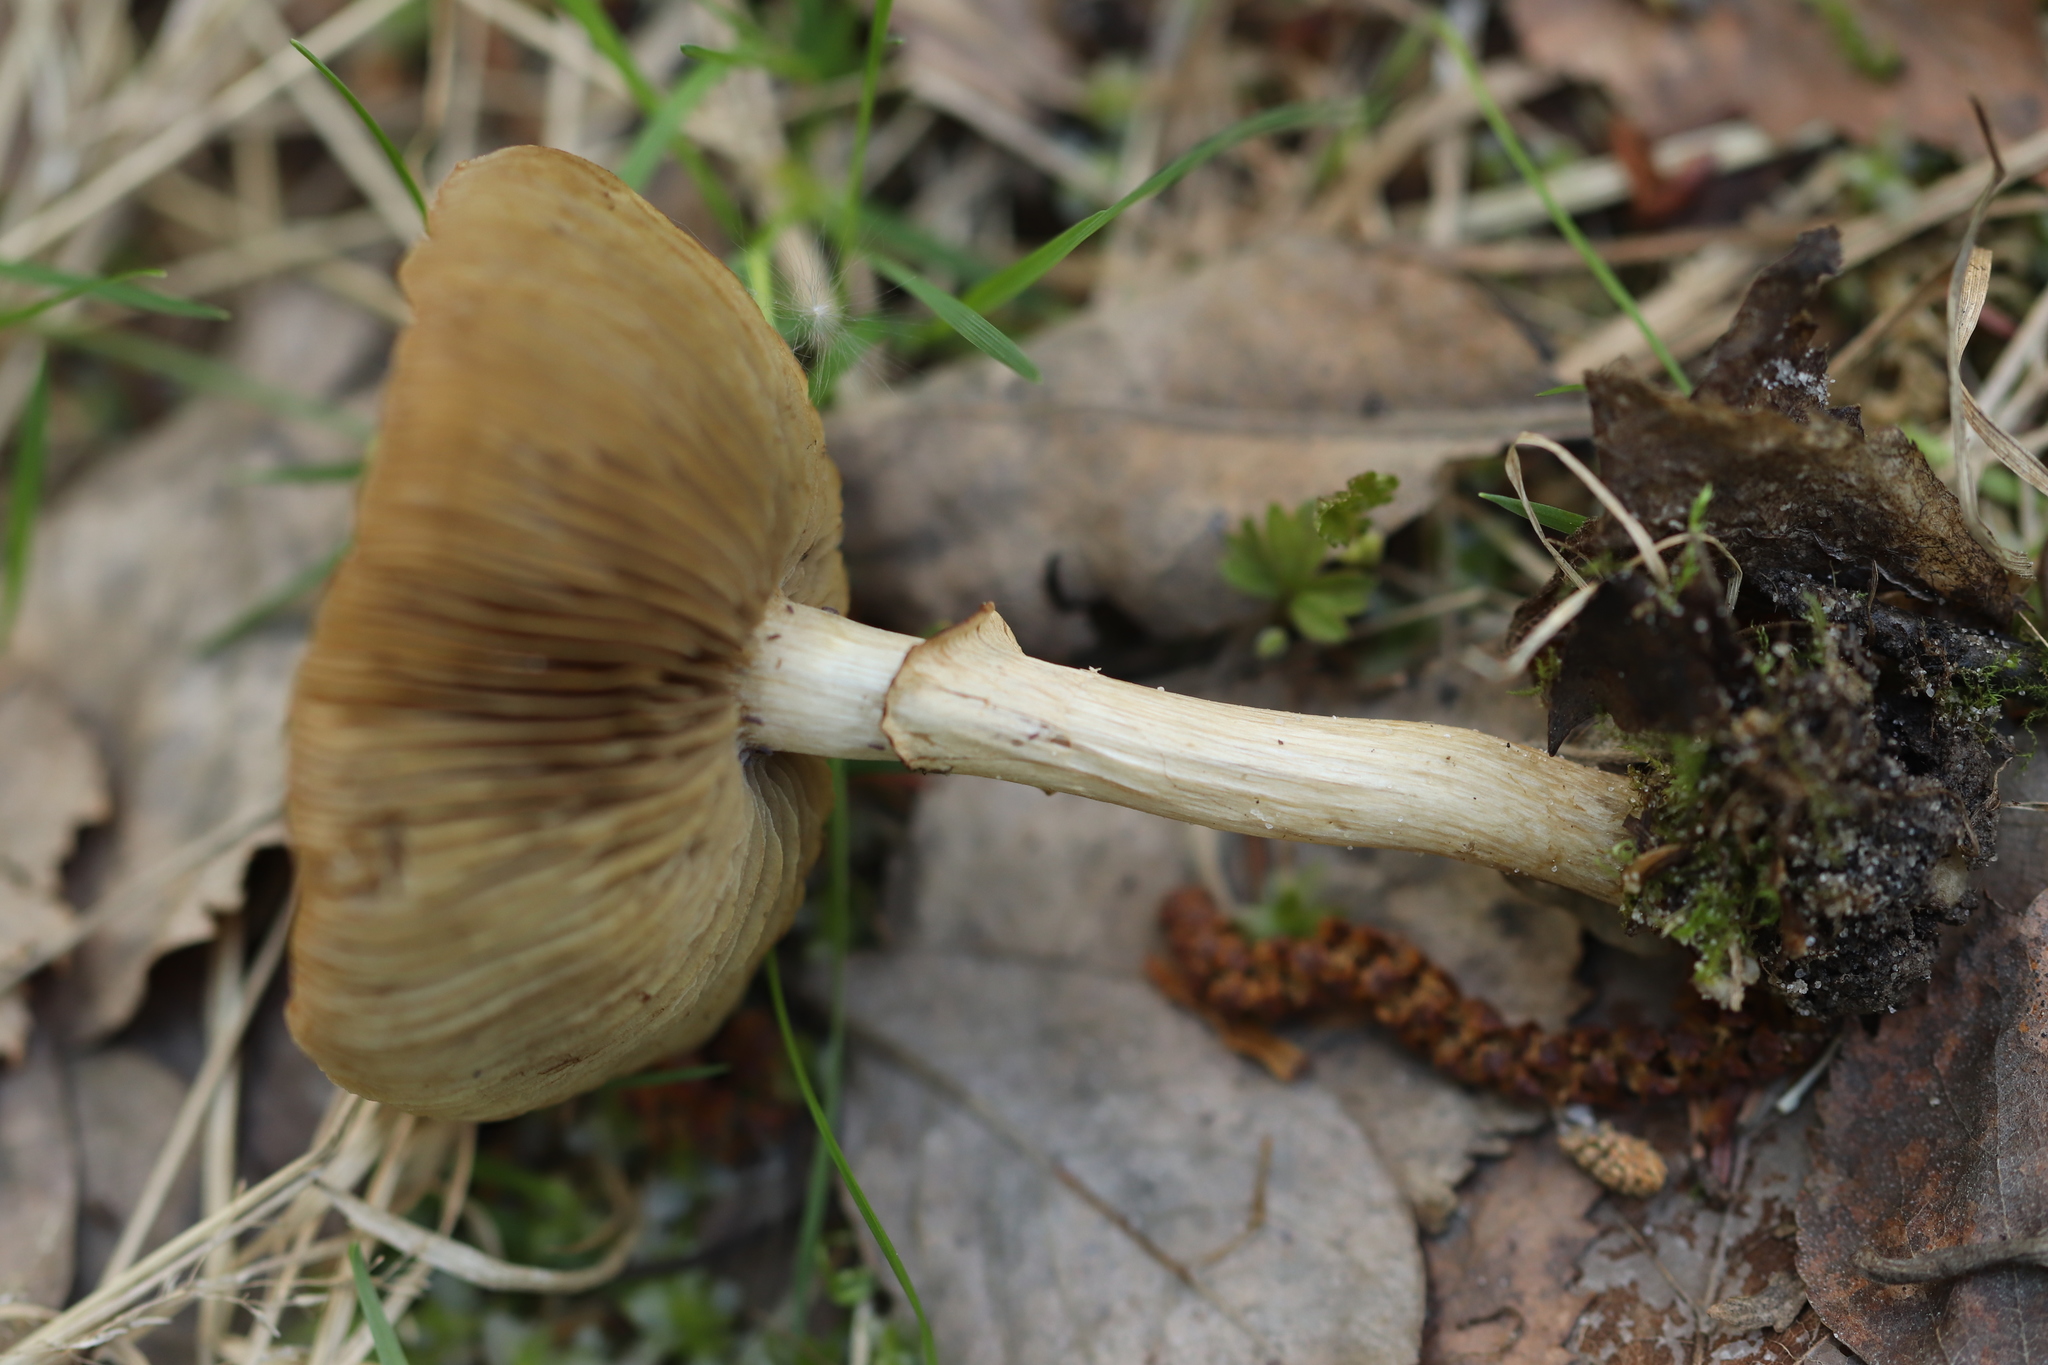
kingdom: Fungi
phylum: Basidiomycota
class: Agaricomycetes
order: Agaricales
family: Strophariaceae
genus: Agrocybe
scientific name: Agrocybe praecox
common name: Spring fieldcap
